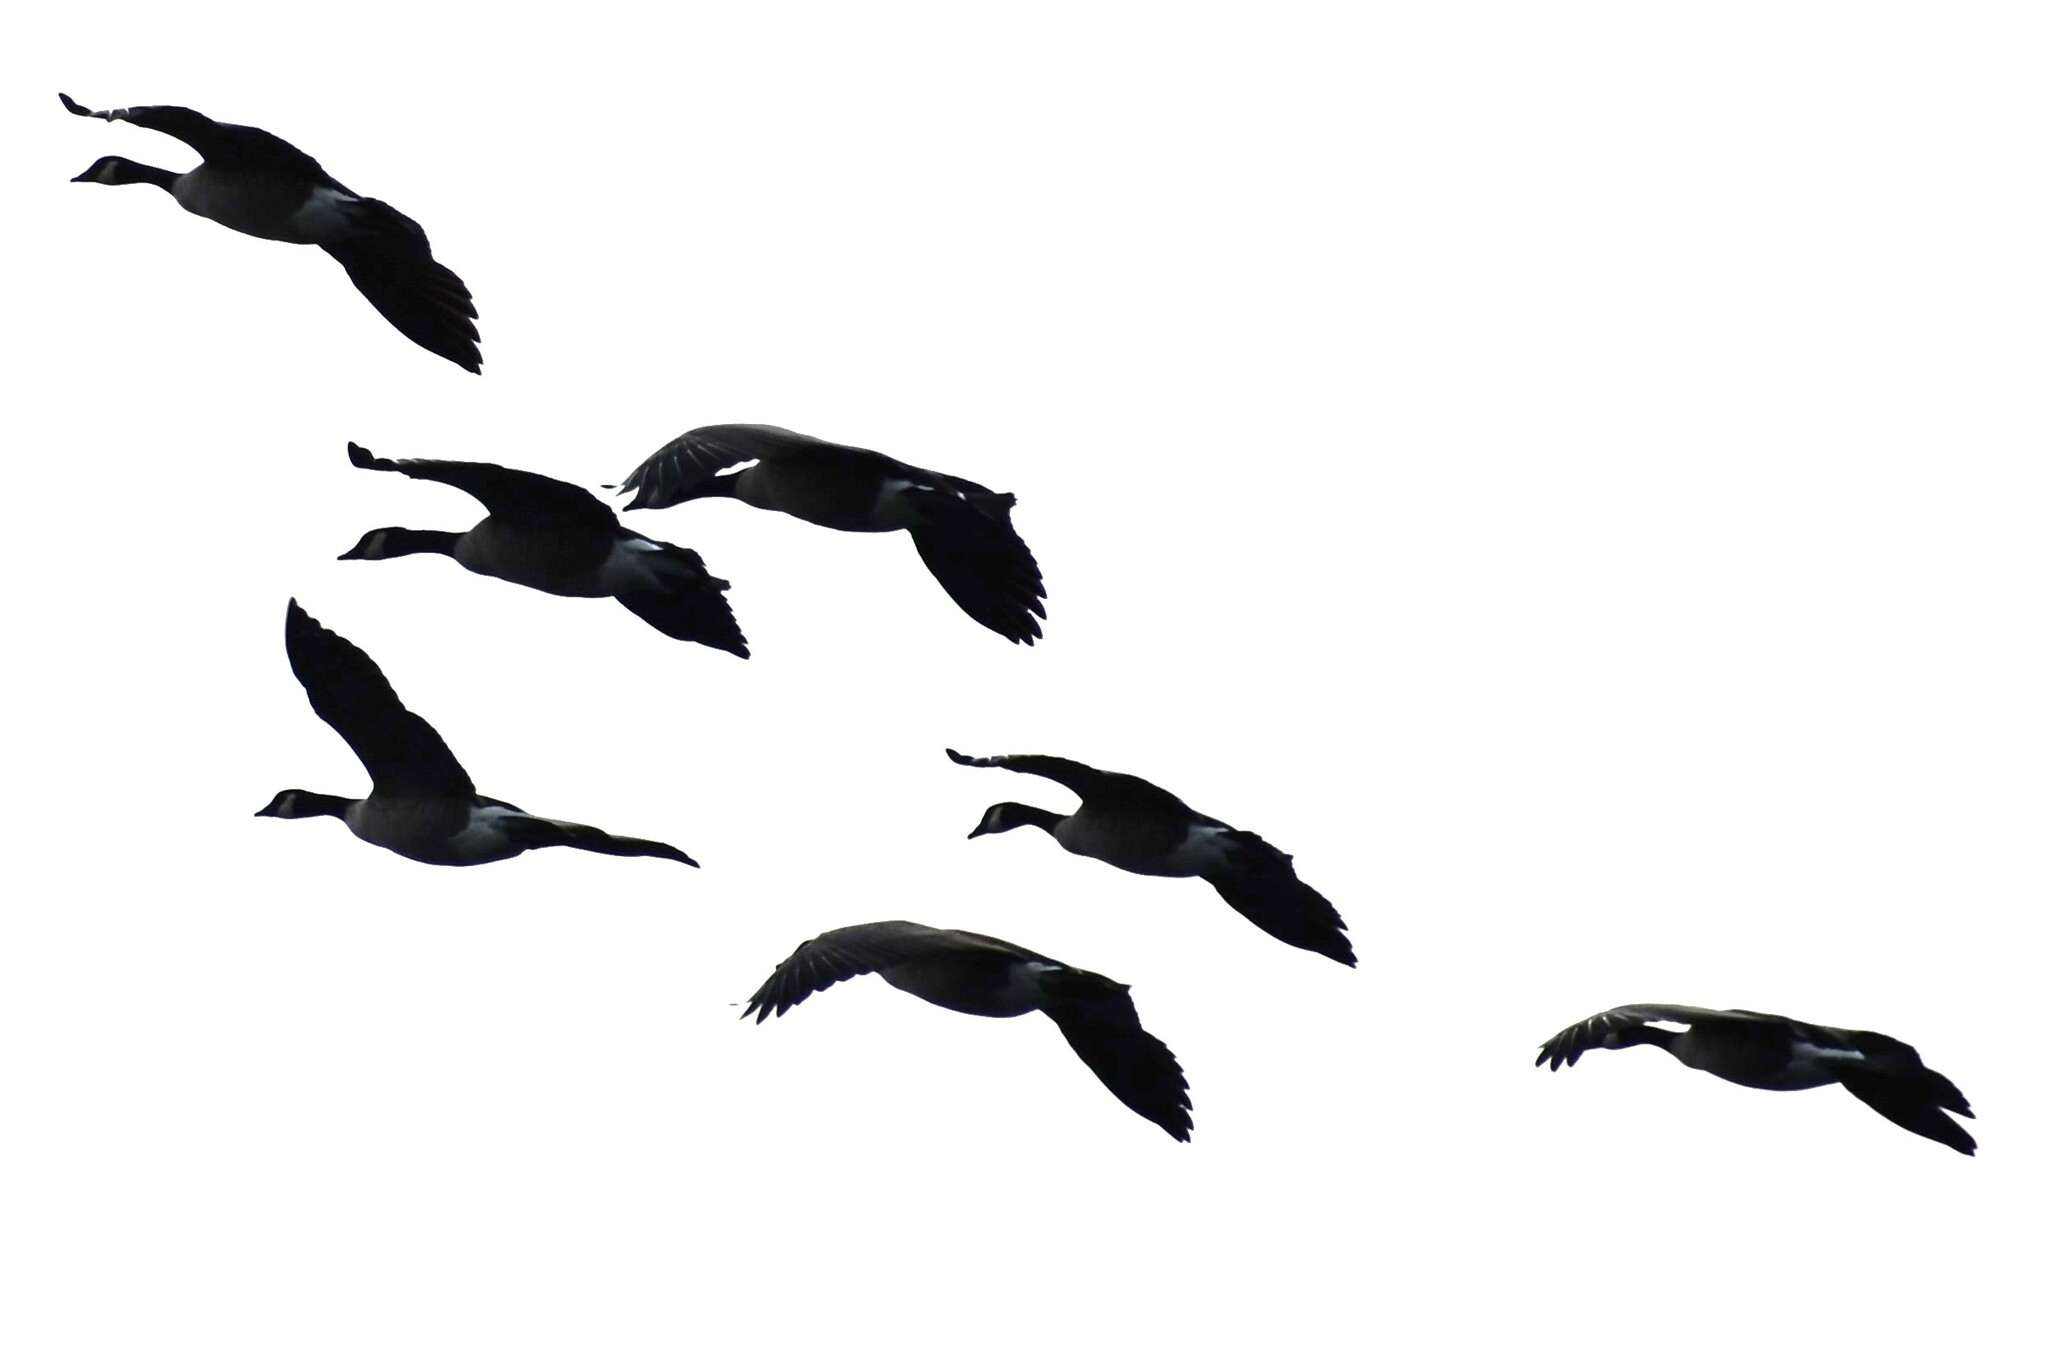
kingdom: Animalia
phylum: Chordata
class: Aves
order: Anseriformes
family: Anatidae
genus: Branta
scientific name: Branta canadensis
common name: Canada goose
